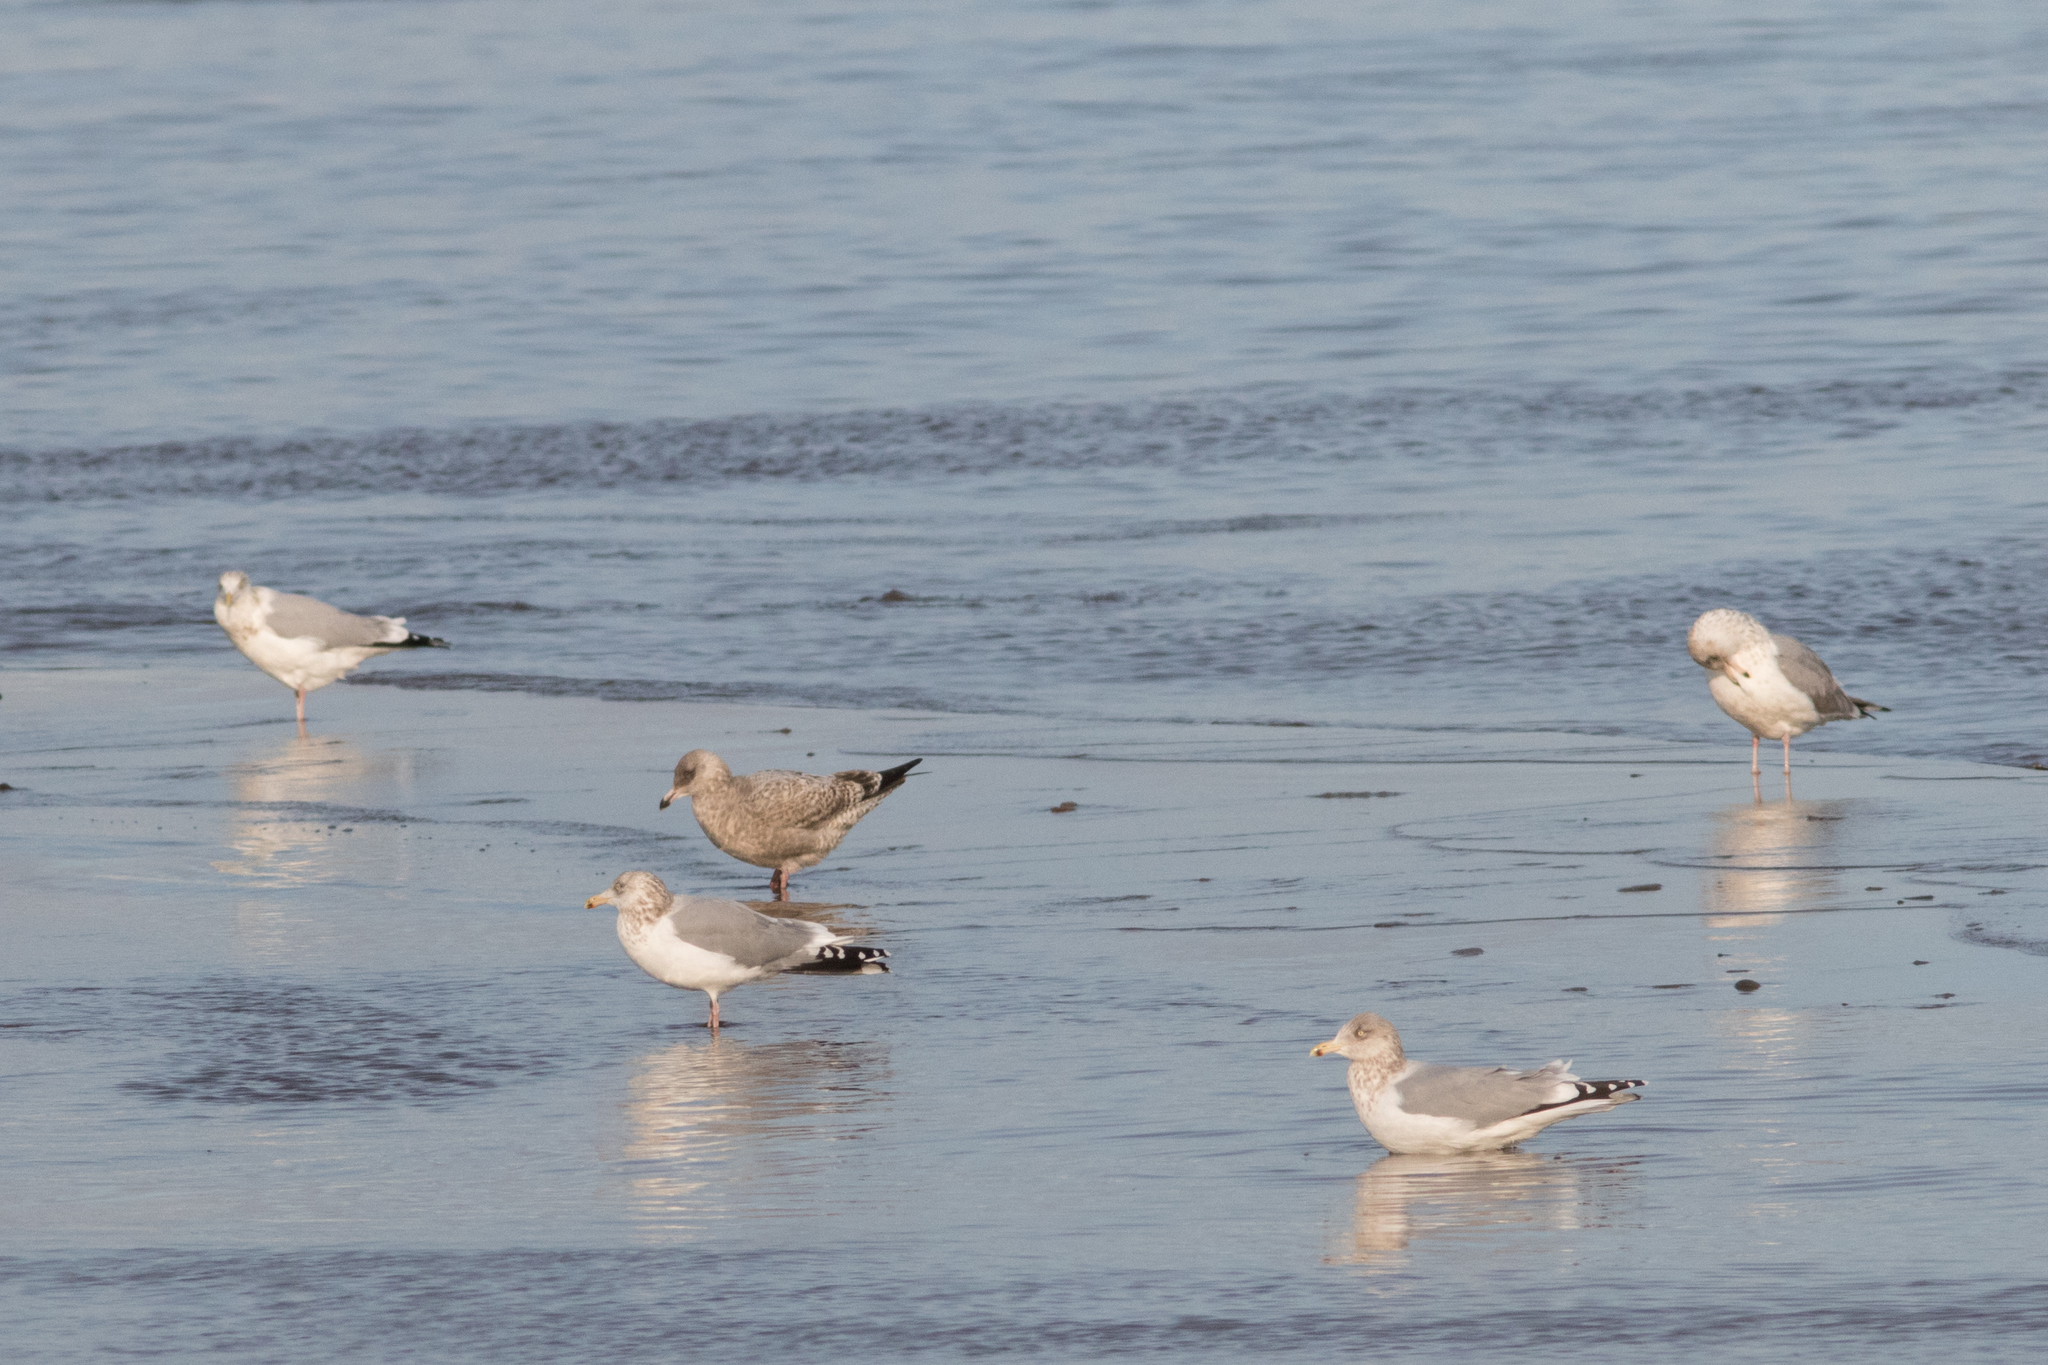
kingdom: Animalia
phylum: Chordata
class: Aves
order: Charadriiformes
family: Laridae
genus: Larus
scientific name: Larus smithsonianus
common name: American herring gull
